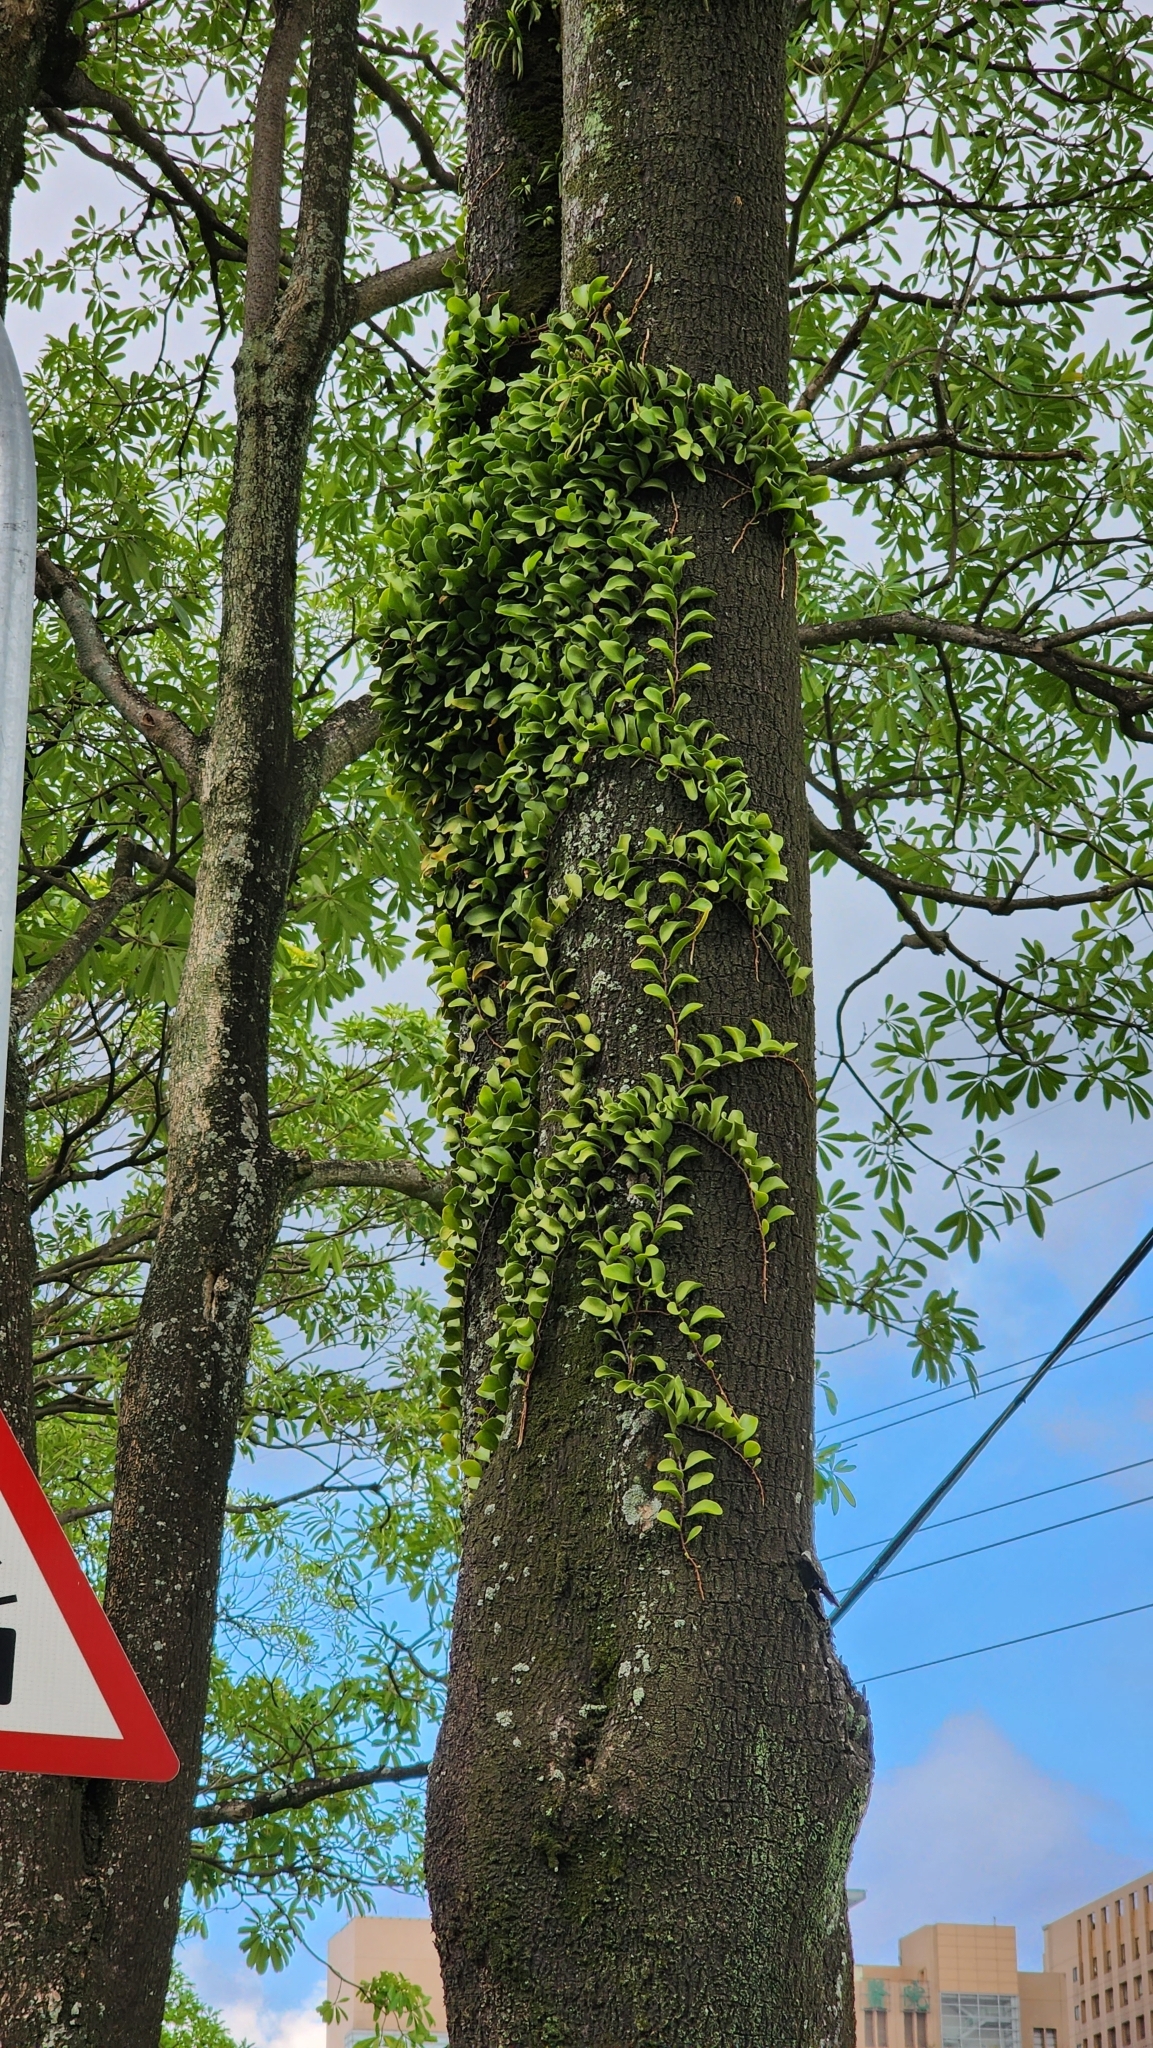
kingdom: Plantae
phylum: Tracheophyta
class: Polypodiopsida
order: Polypodiales
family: Polypodiaceae
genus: Pyrrosia
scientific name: Pyrrosia lanceolata
